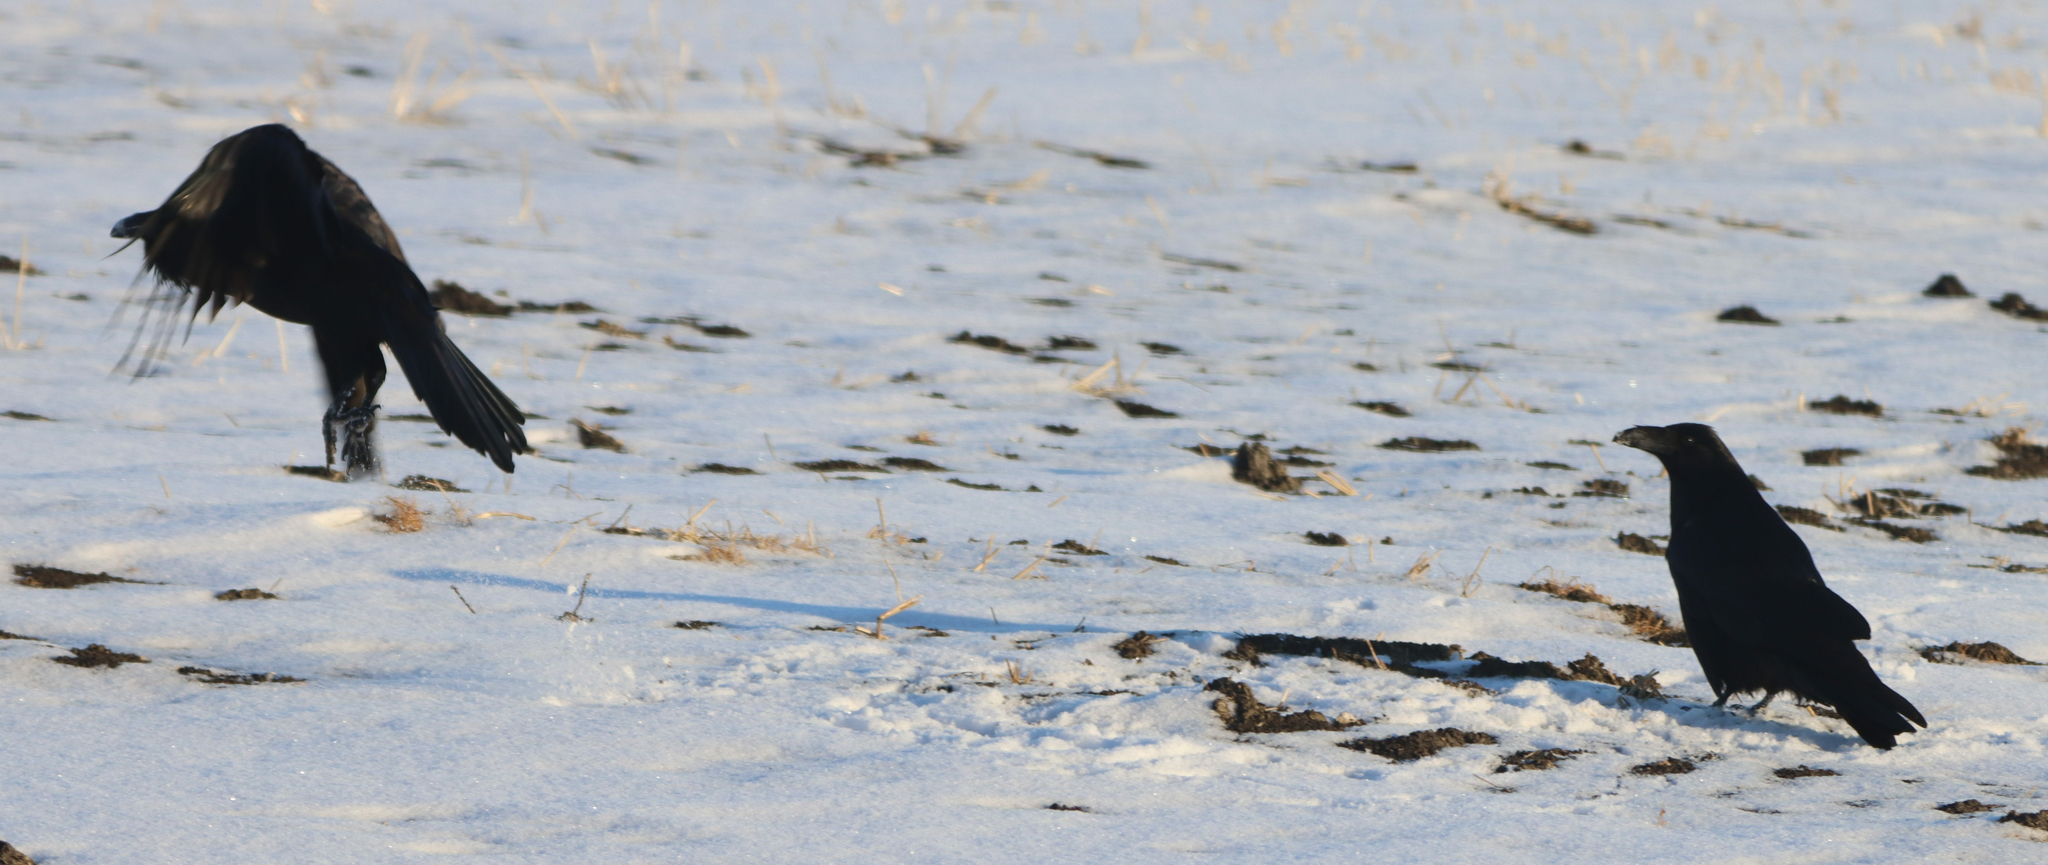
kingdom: Animalia
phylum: Chordata
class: Aves
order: Passeriformes
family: Corvidae
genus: Corvus
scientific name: Corvus corax
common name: Common raven
